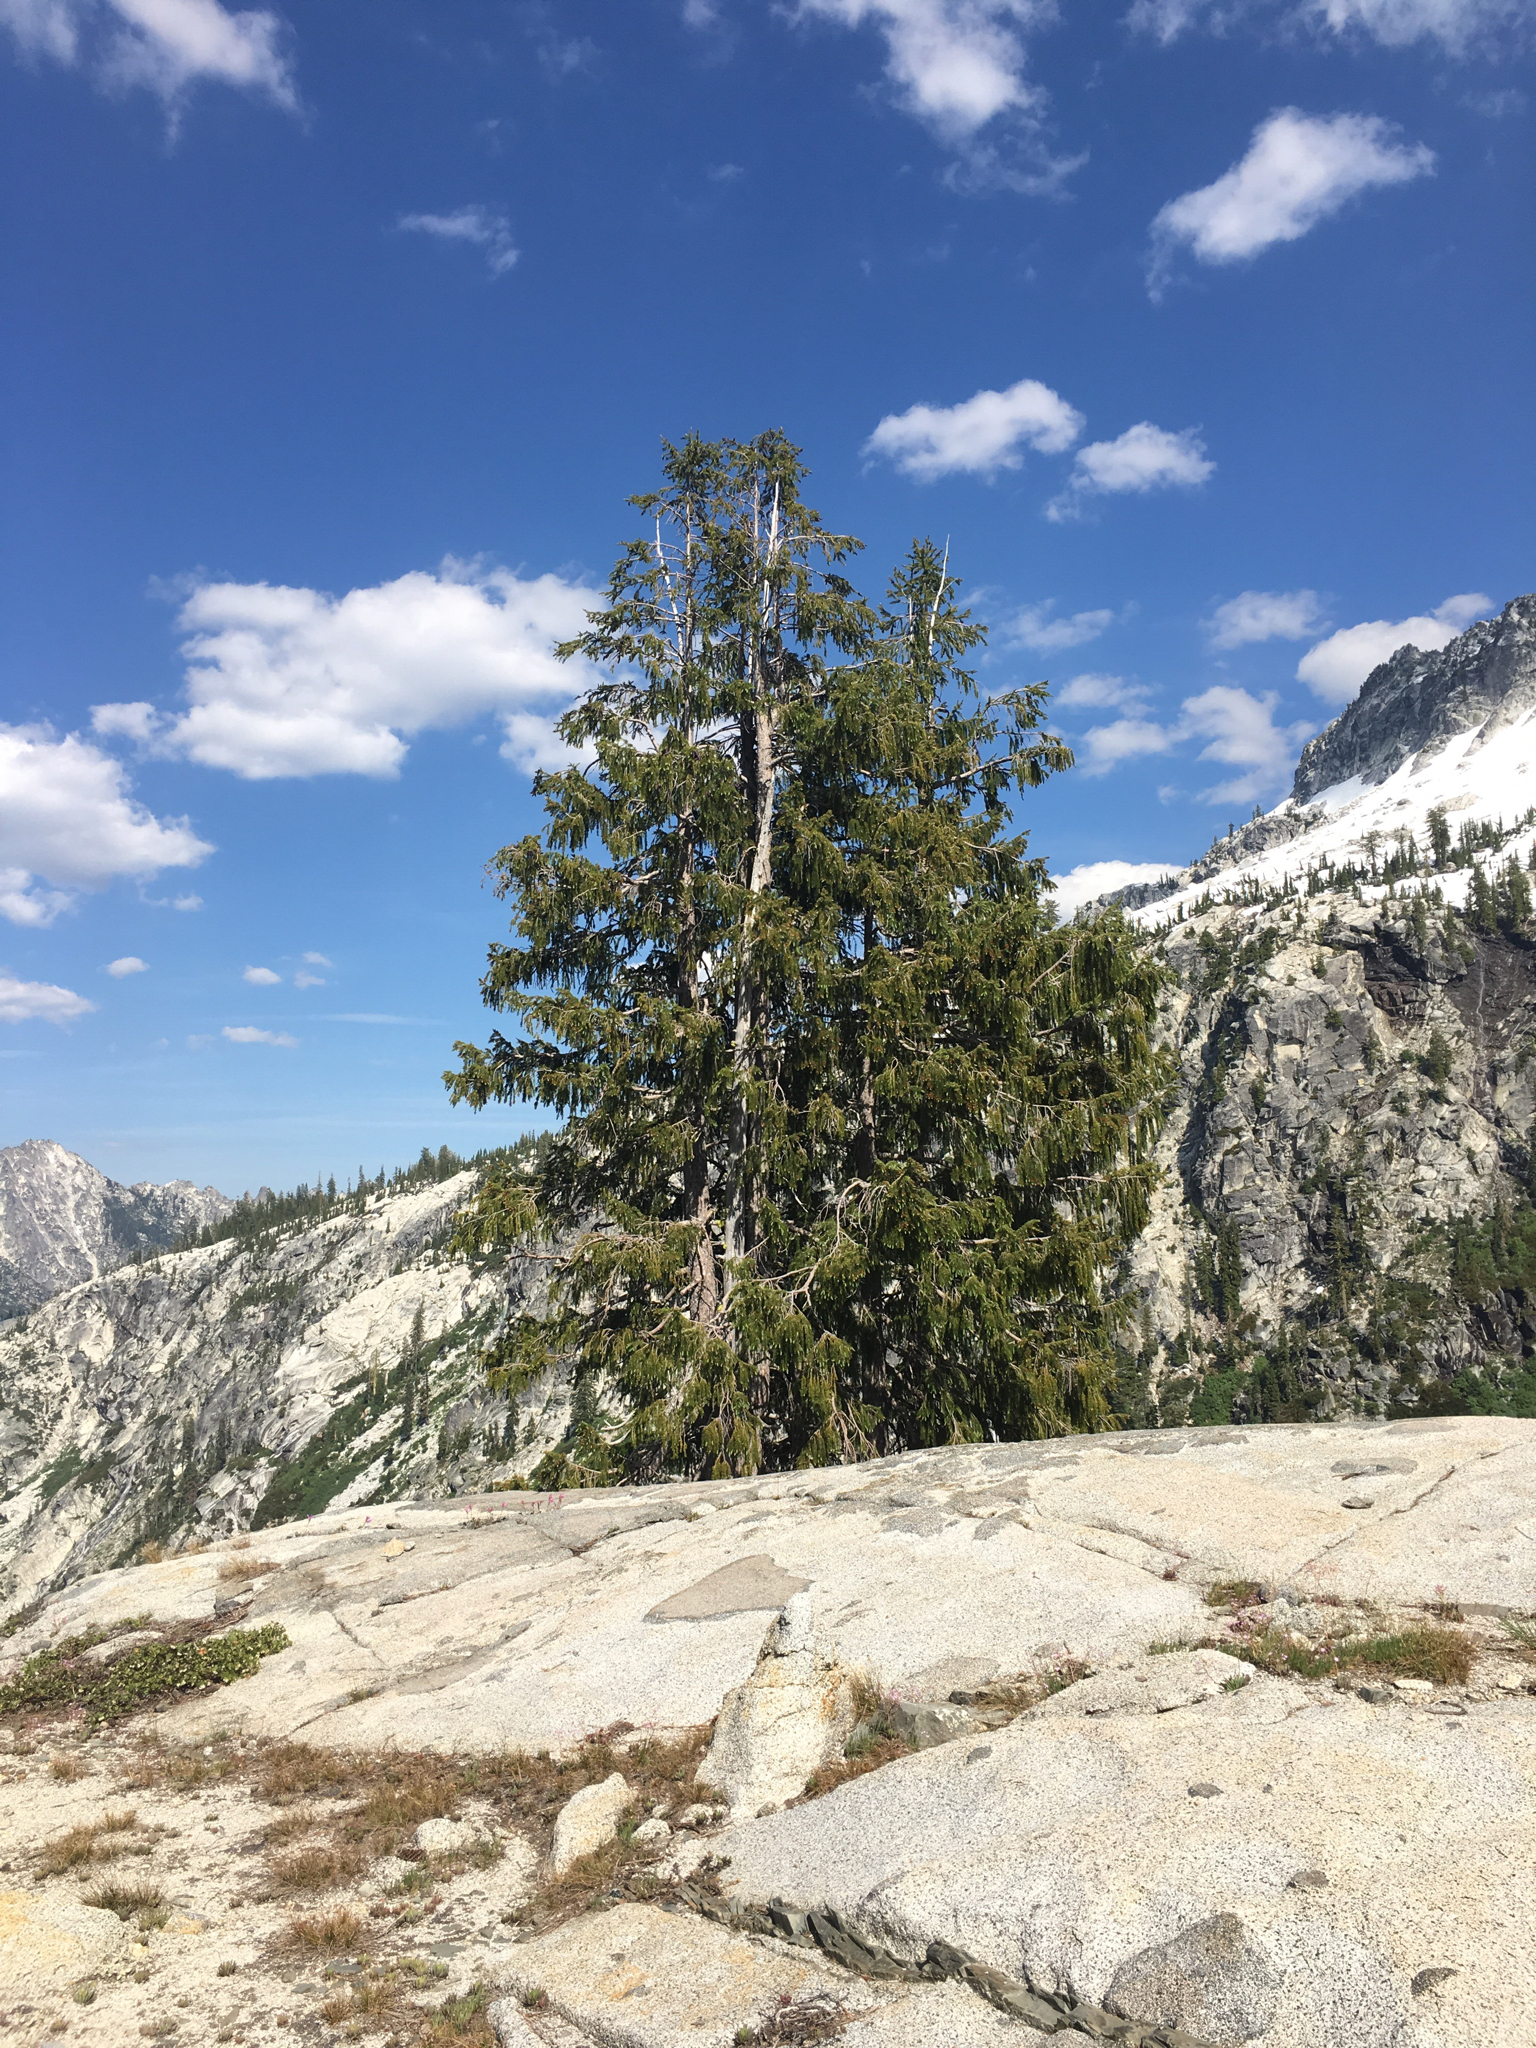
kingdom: Plantae
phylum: Tracheophyta
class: Pinopsida
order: Pinales
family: Pinaceae
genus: Picea
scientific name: Picea breweriana
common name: Brewer's spruce
